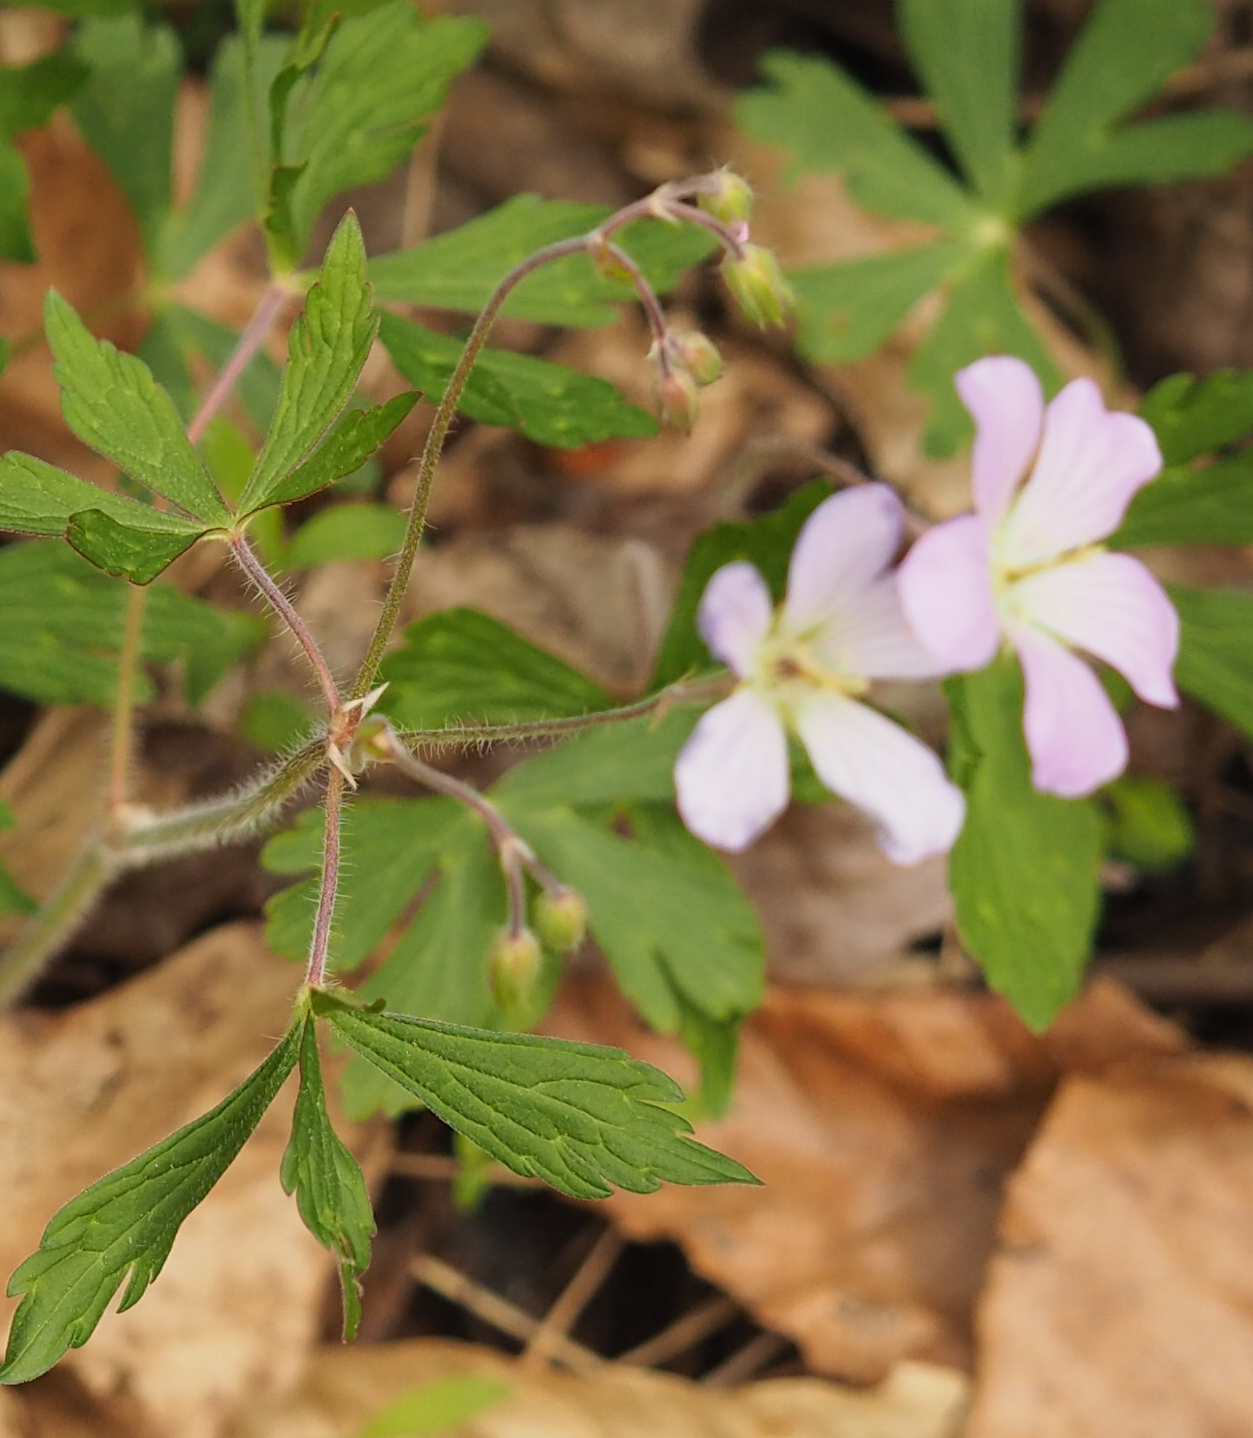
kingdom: Plantae
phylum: Tracheophyta
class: Magnoliopsida
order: Geraniales
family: Geraniaceae
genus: Geranium
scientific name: Geranium maculatum
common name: Spotted geranium
